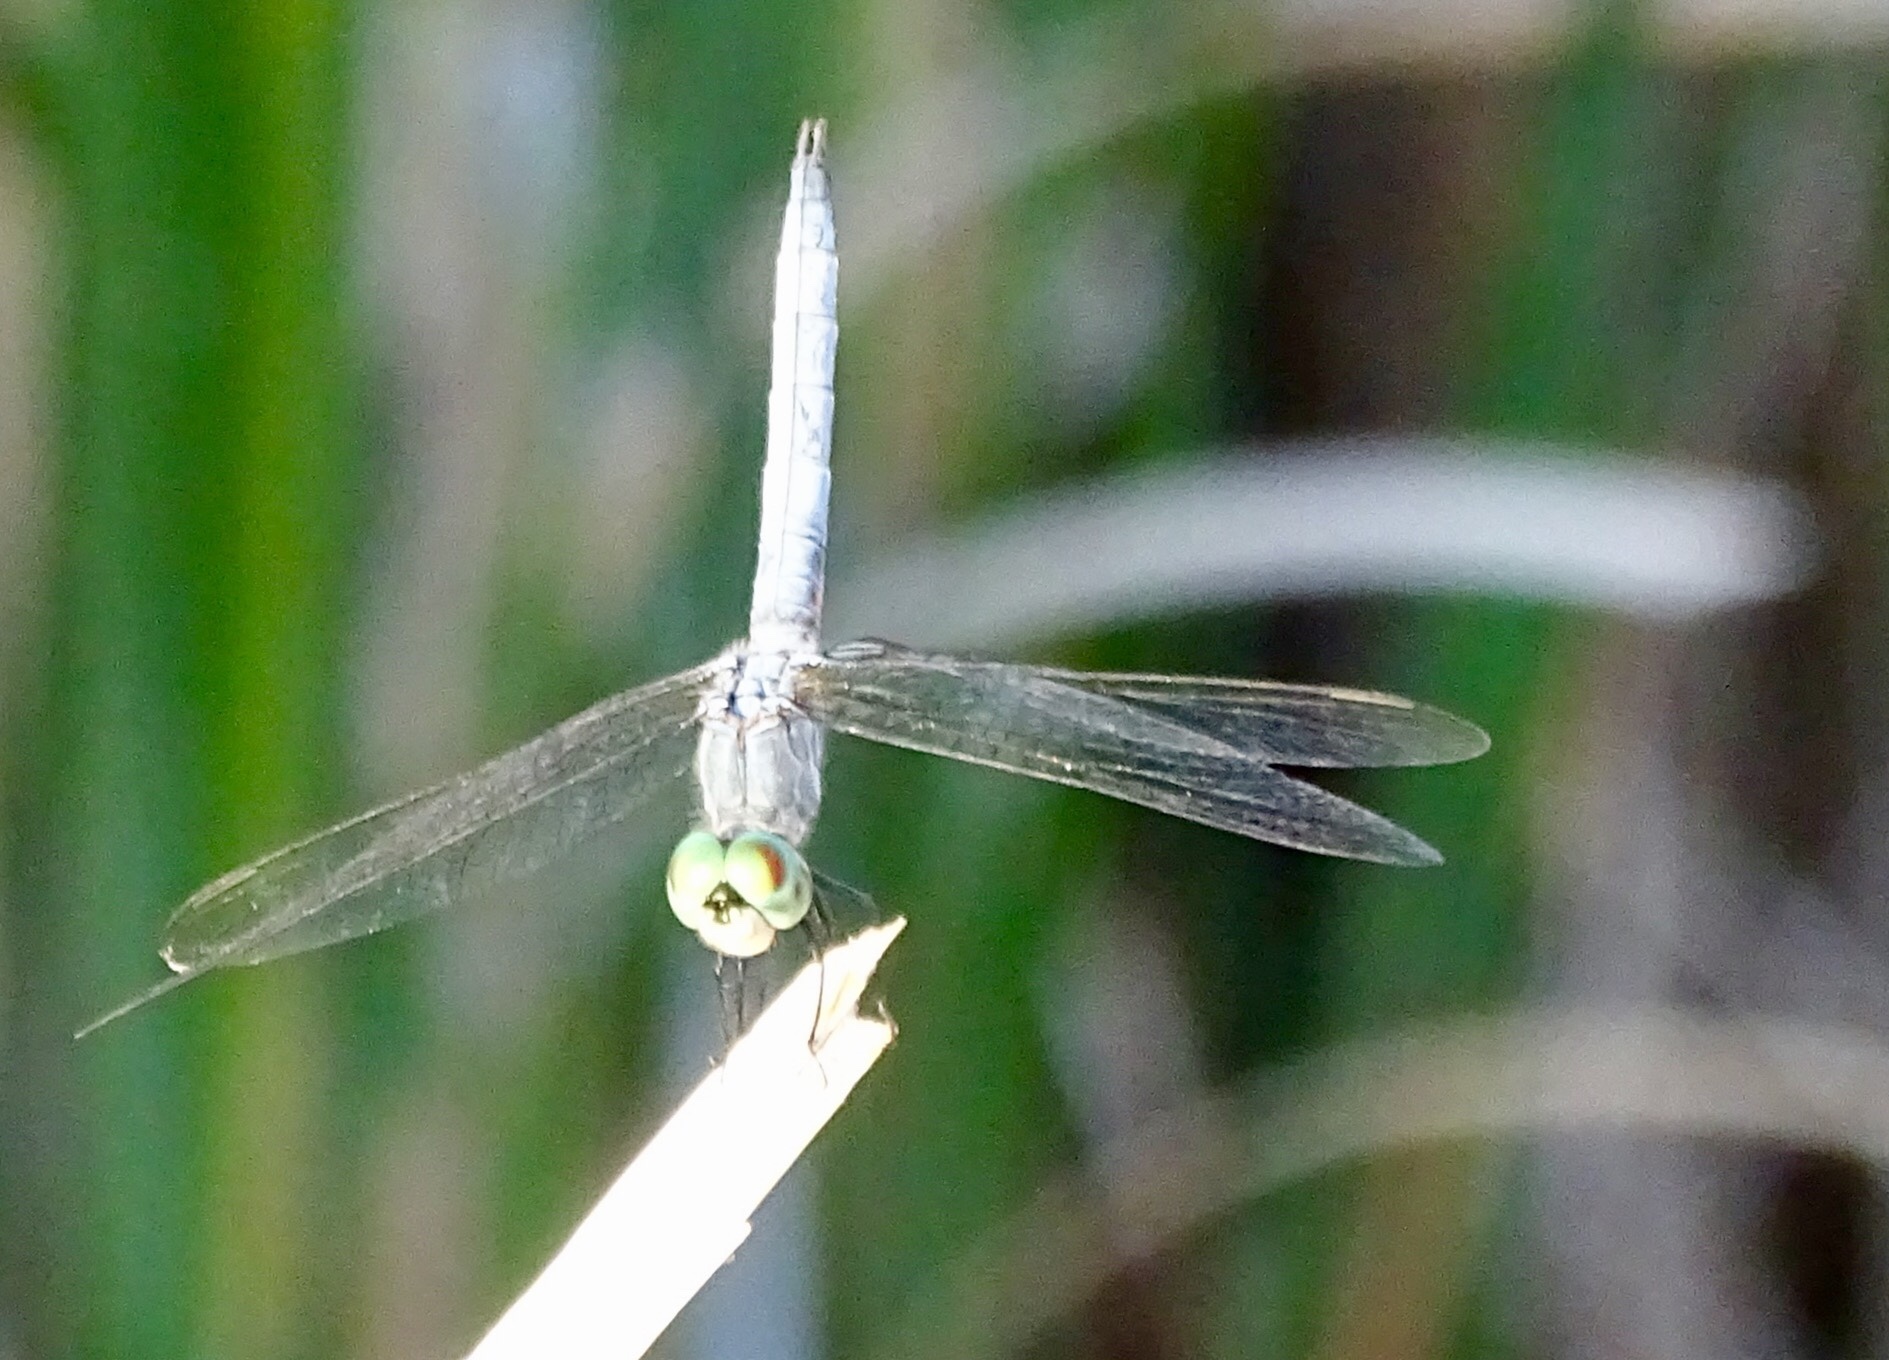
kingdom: Animalia
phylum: Arthropoda
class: Insecta
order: Odonata
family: Libellulidae
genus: Pachydiplax
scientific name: Pachydiplax longipennis
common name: Blue dasher
